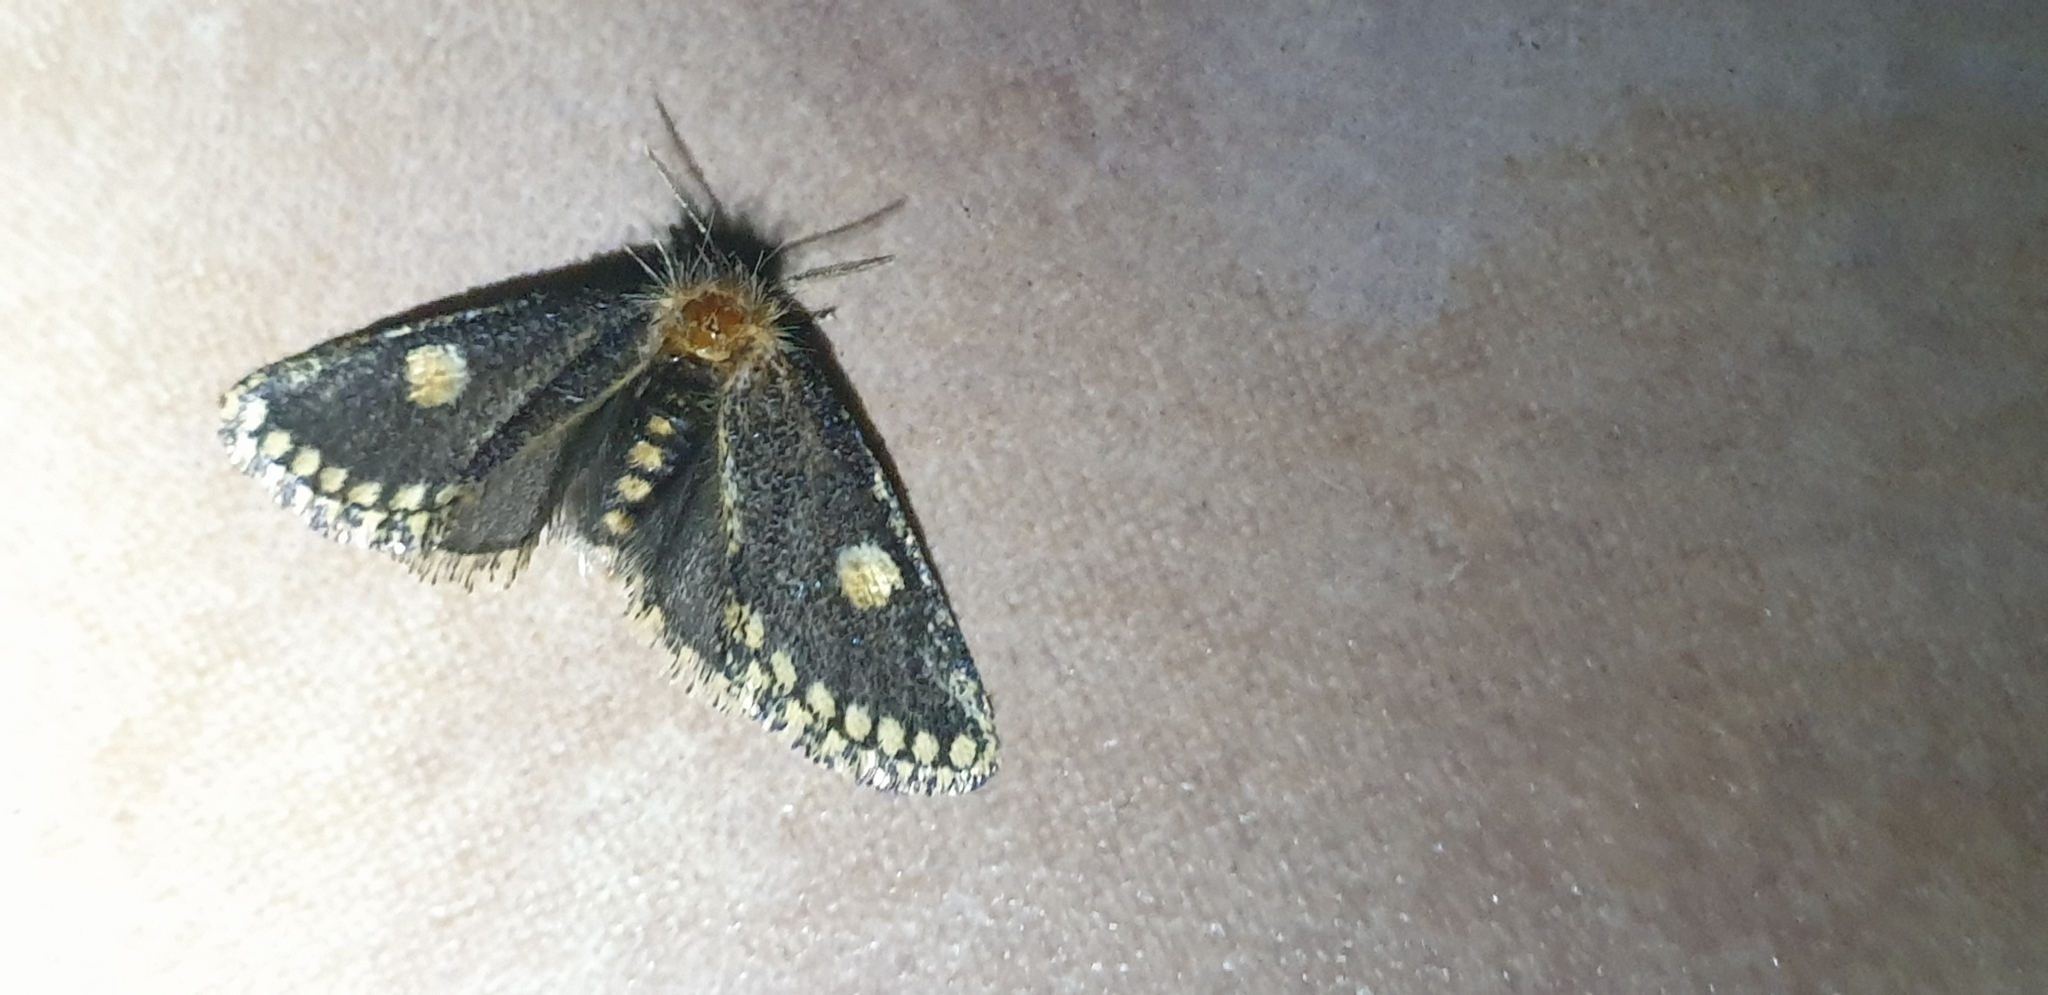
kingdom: Animalia
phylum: Arthropoda
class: Insecta
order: Lepidoptera
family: Notodontidae
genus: Epicoma
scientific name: Epicoma protrahens
